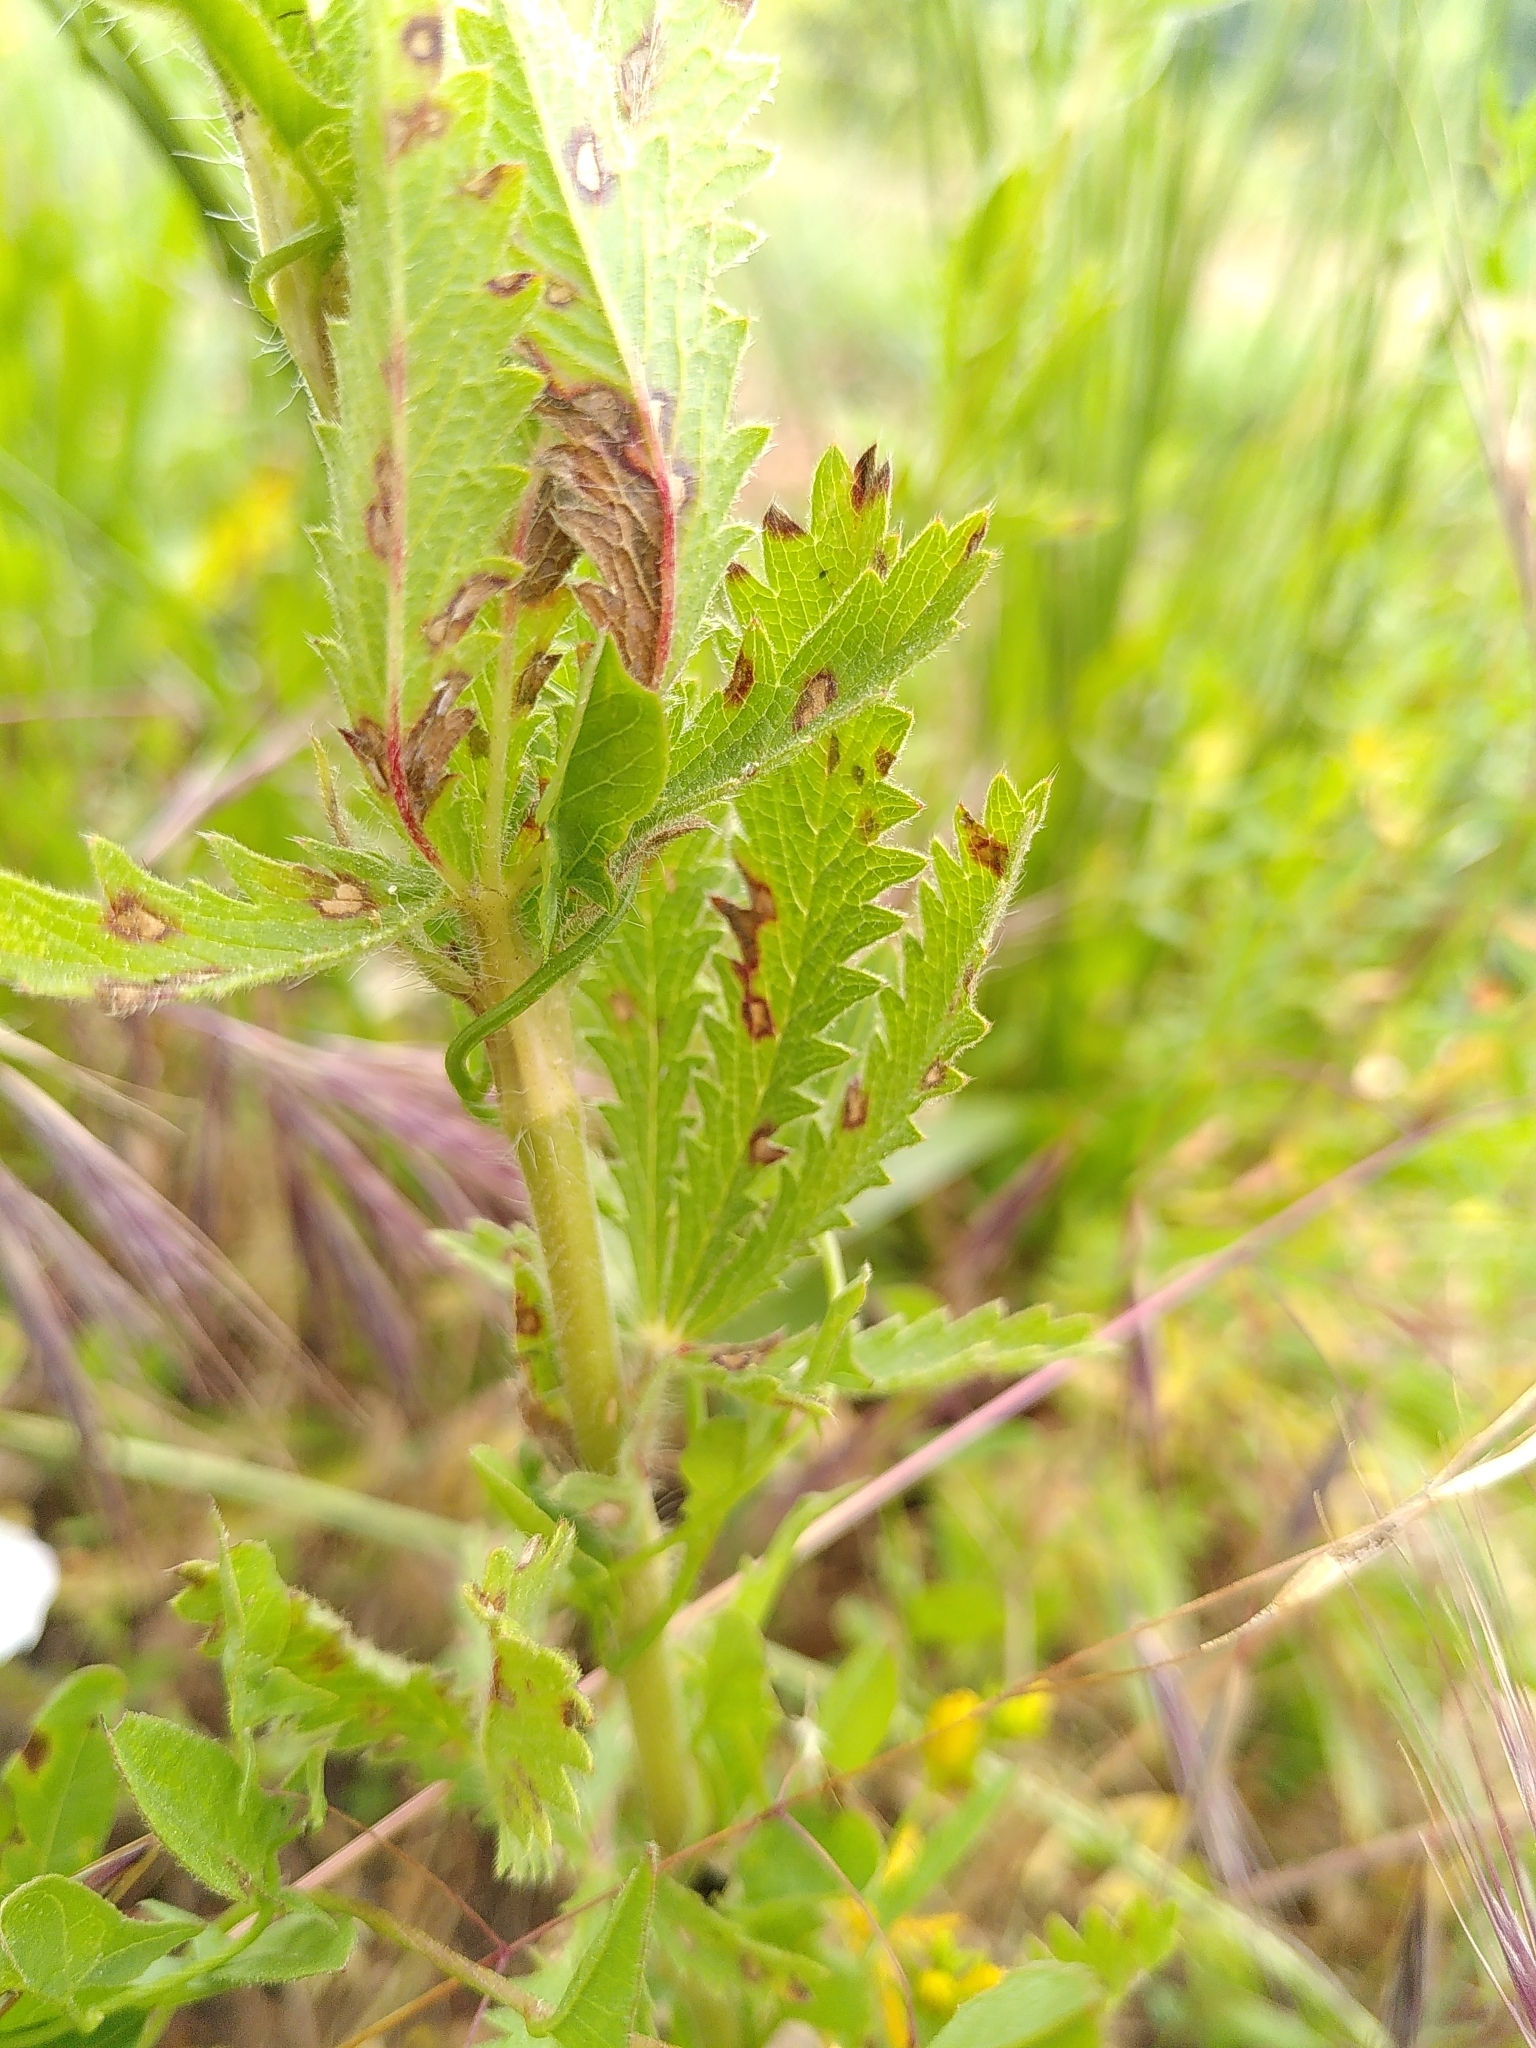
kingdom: Plantae
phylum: Tracheophyta
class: Magnoliopsida
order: Rosales
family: Rosaceae
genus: Potentilla
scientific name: Potentilla recta
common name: Sulphur cinquefoil
